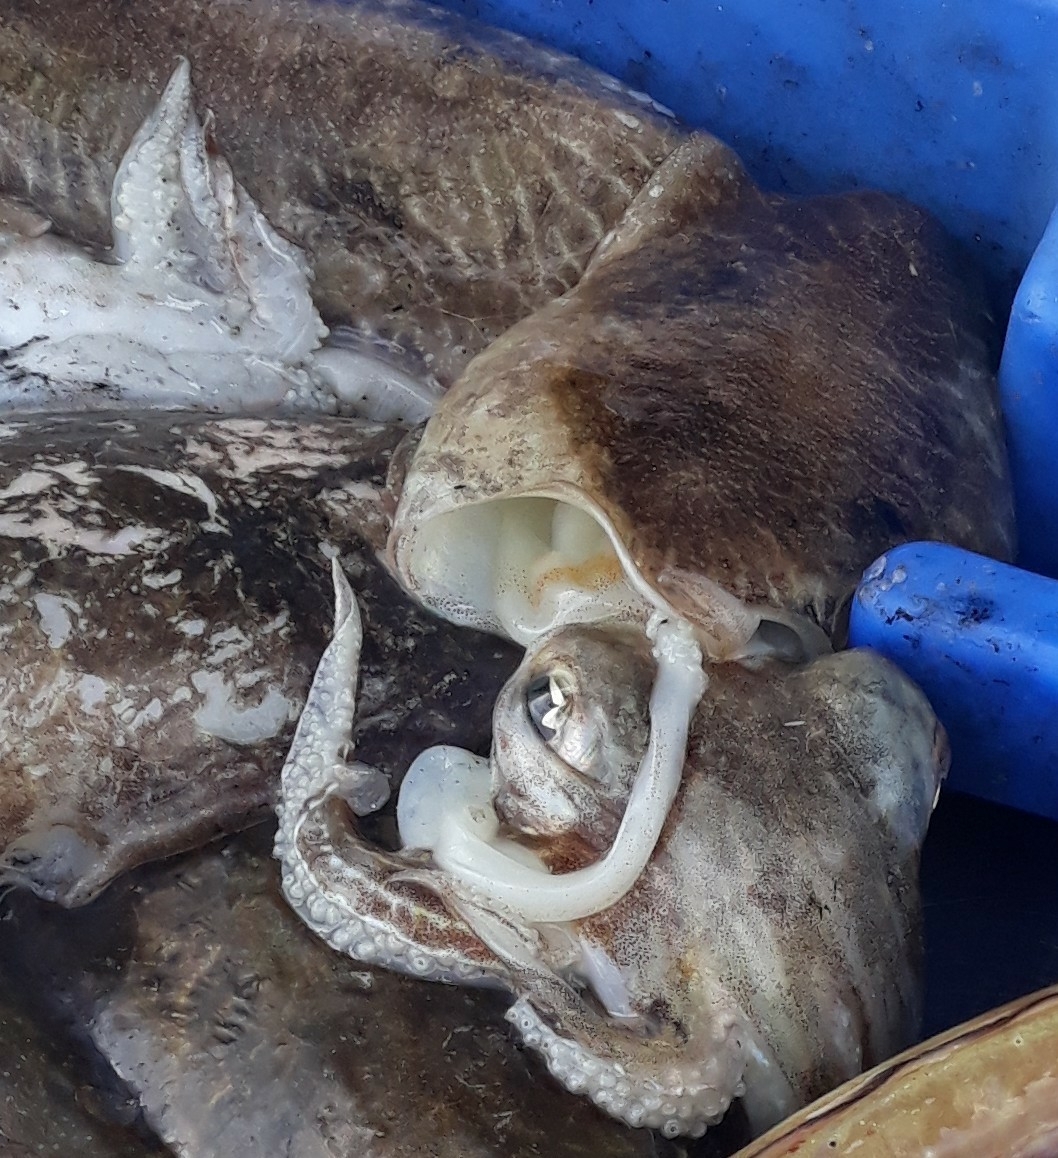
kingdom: Animalia
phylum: Mollusca
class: Cephalopoda
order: Sepiida
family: Sepiidae
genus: Sepia
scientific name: Sepia officinalis
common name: Common cuttlefish
